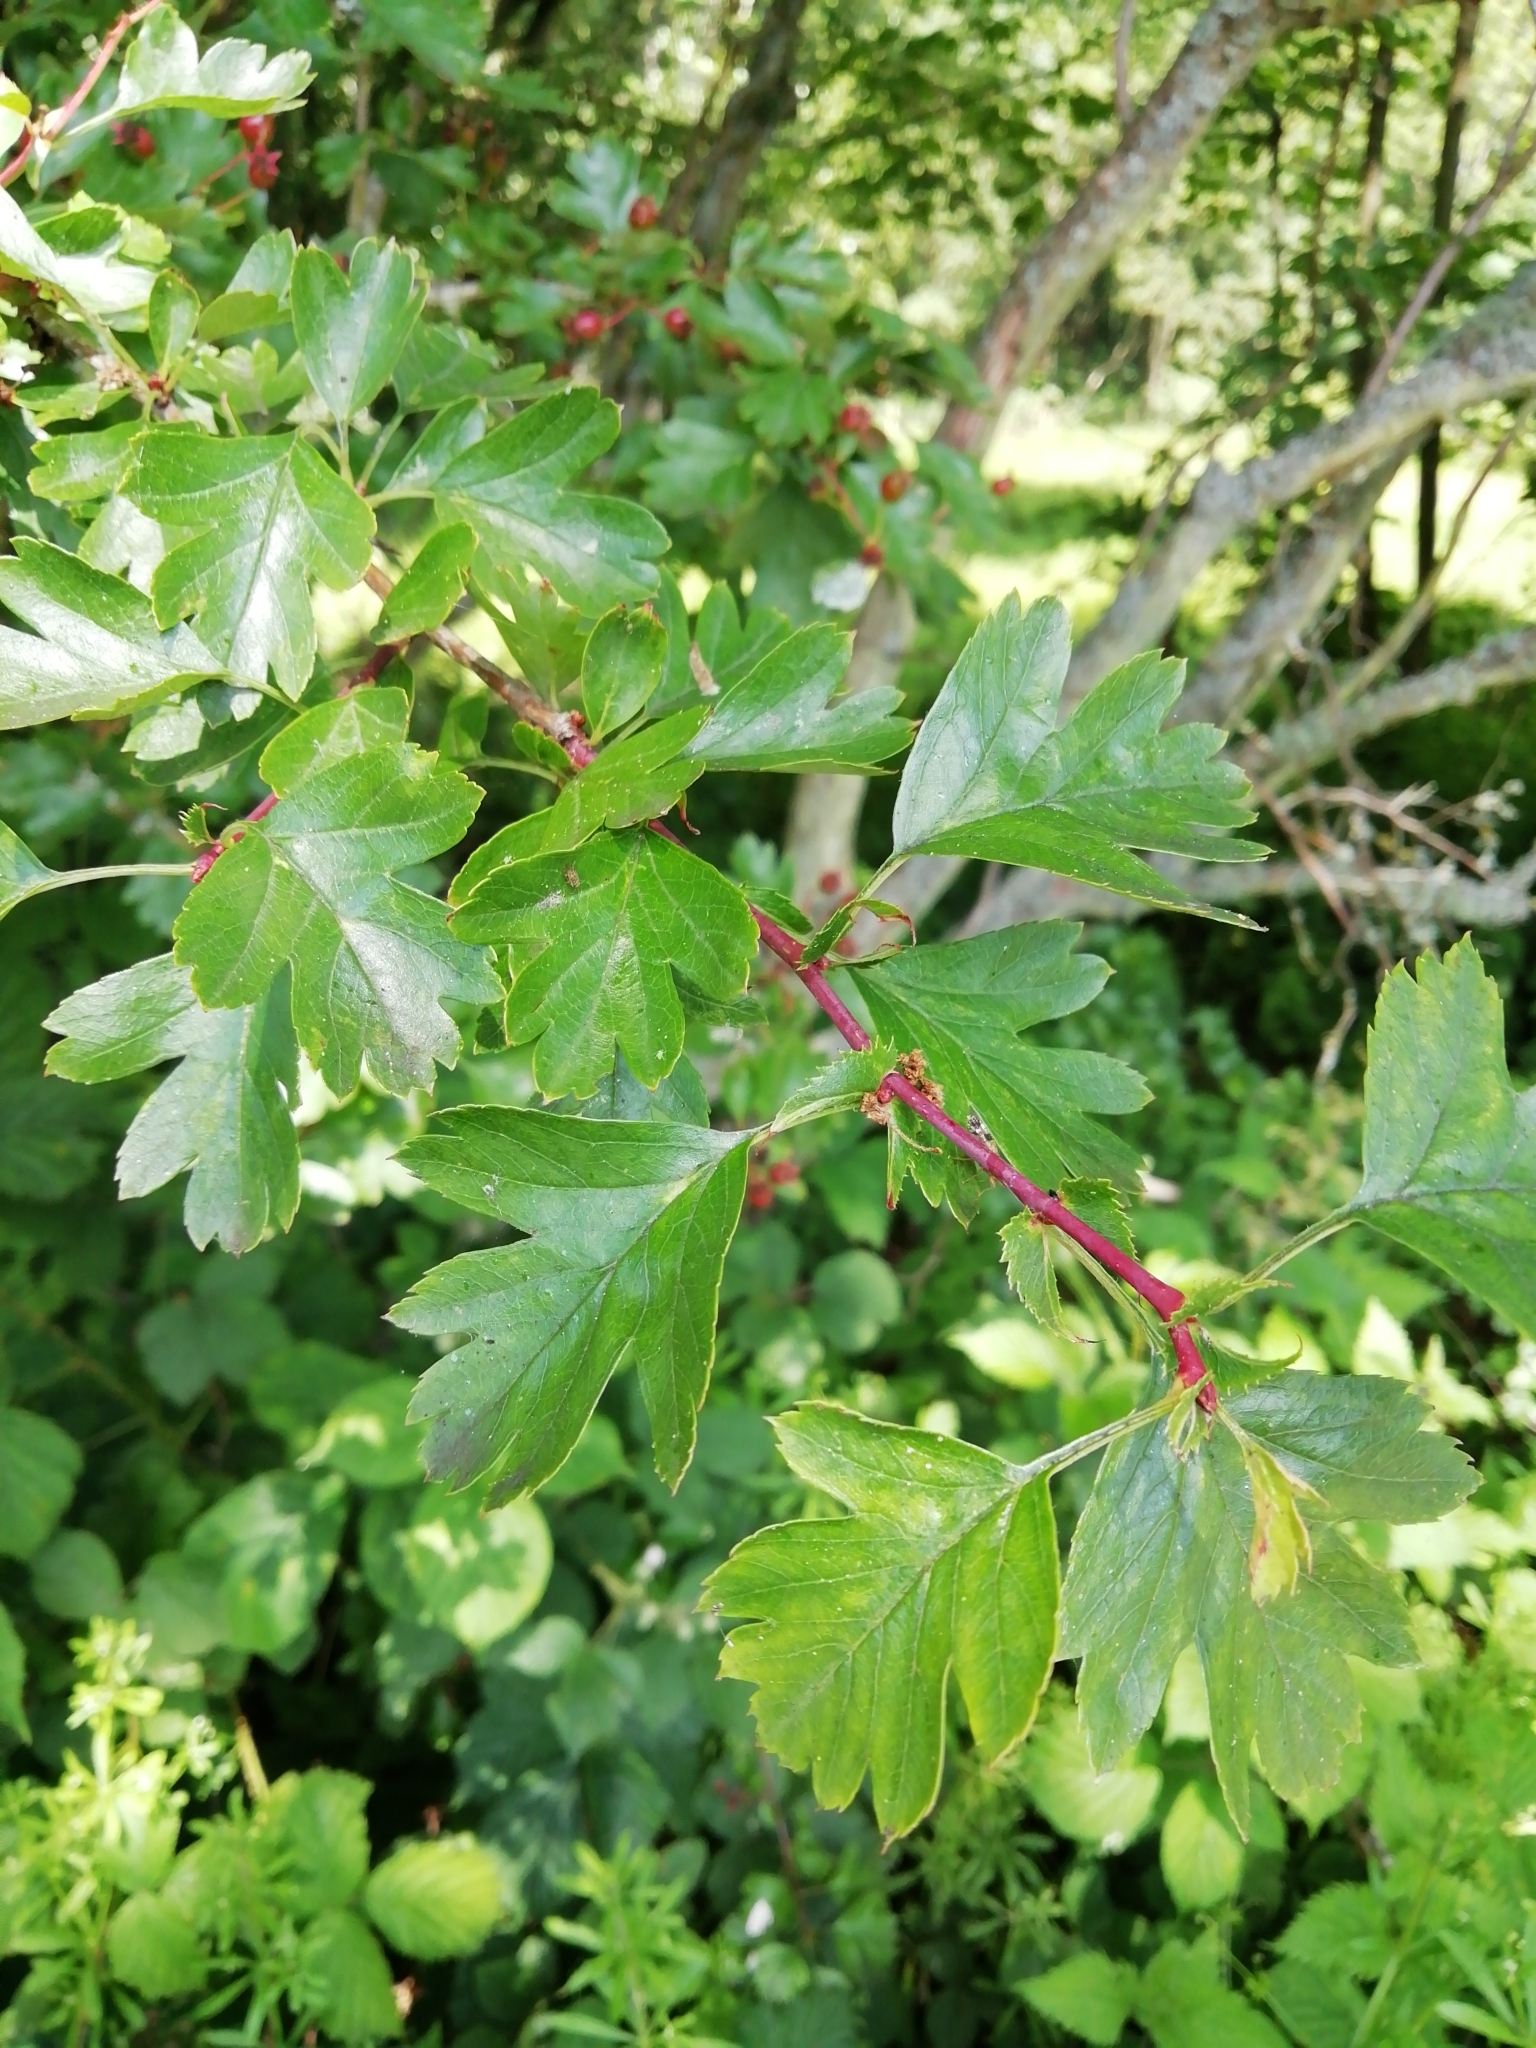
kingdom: Plantae
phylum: Tracheophyta
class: Magnoliopsida
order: Rosales
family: Rosaceae
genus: Crataegus
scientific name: Crataegus monogyna
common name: Hawthorn
